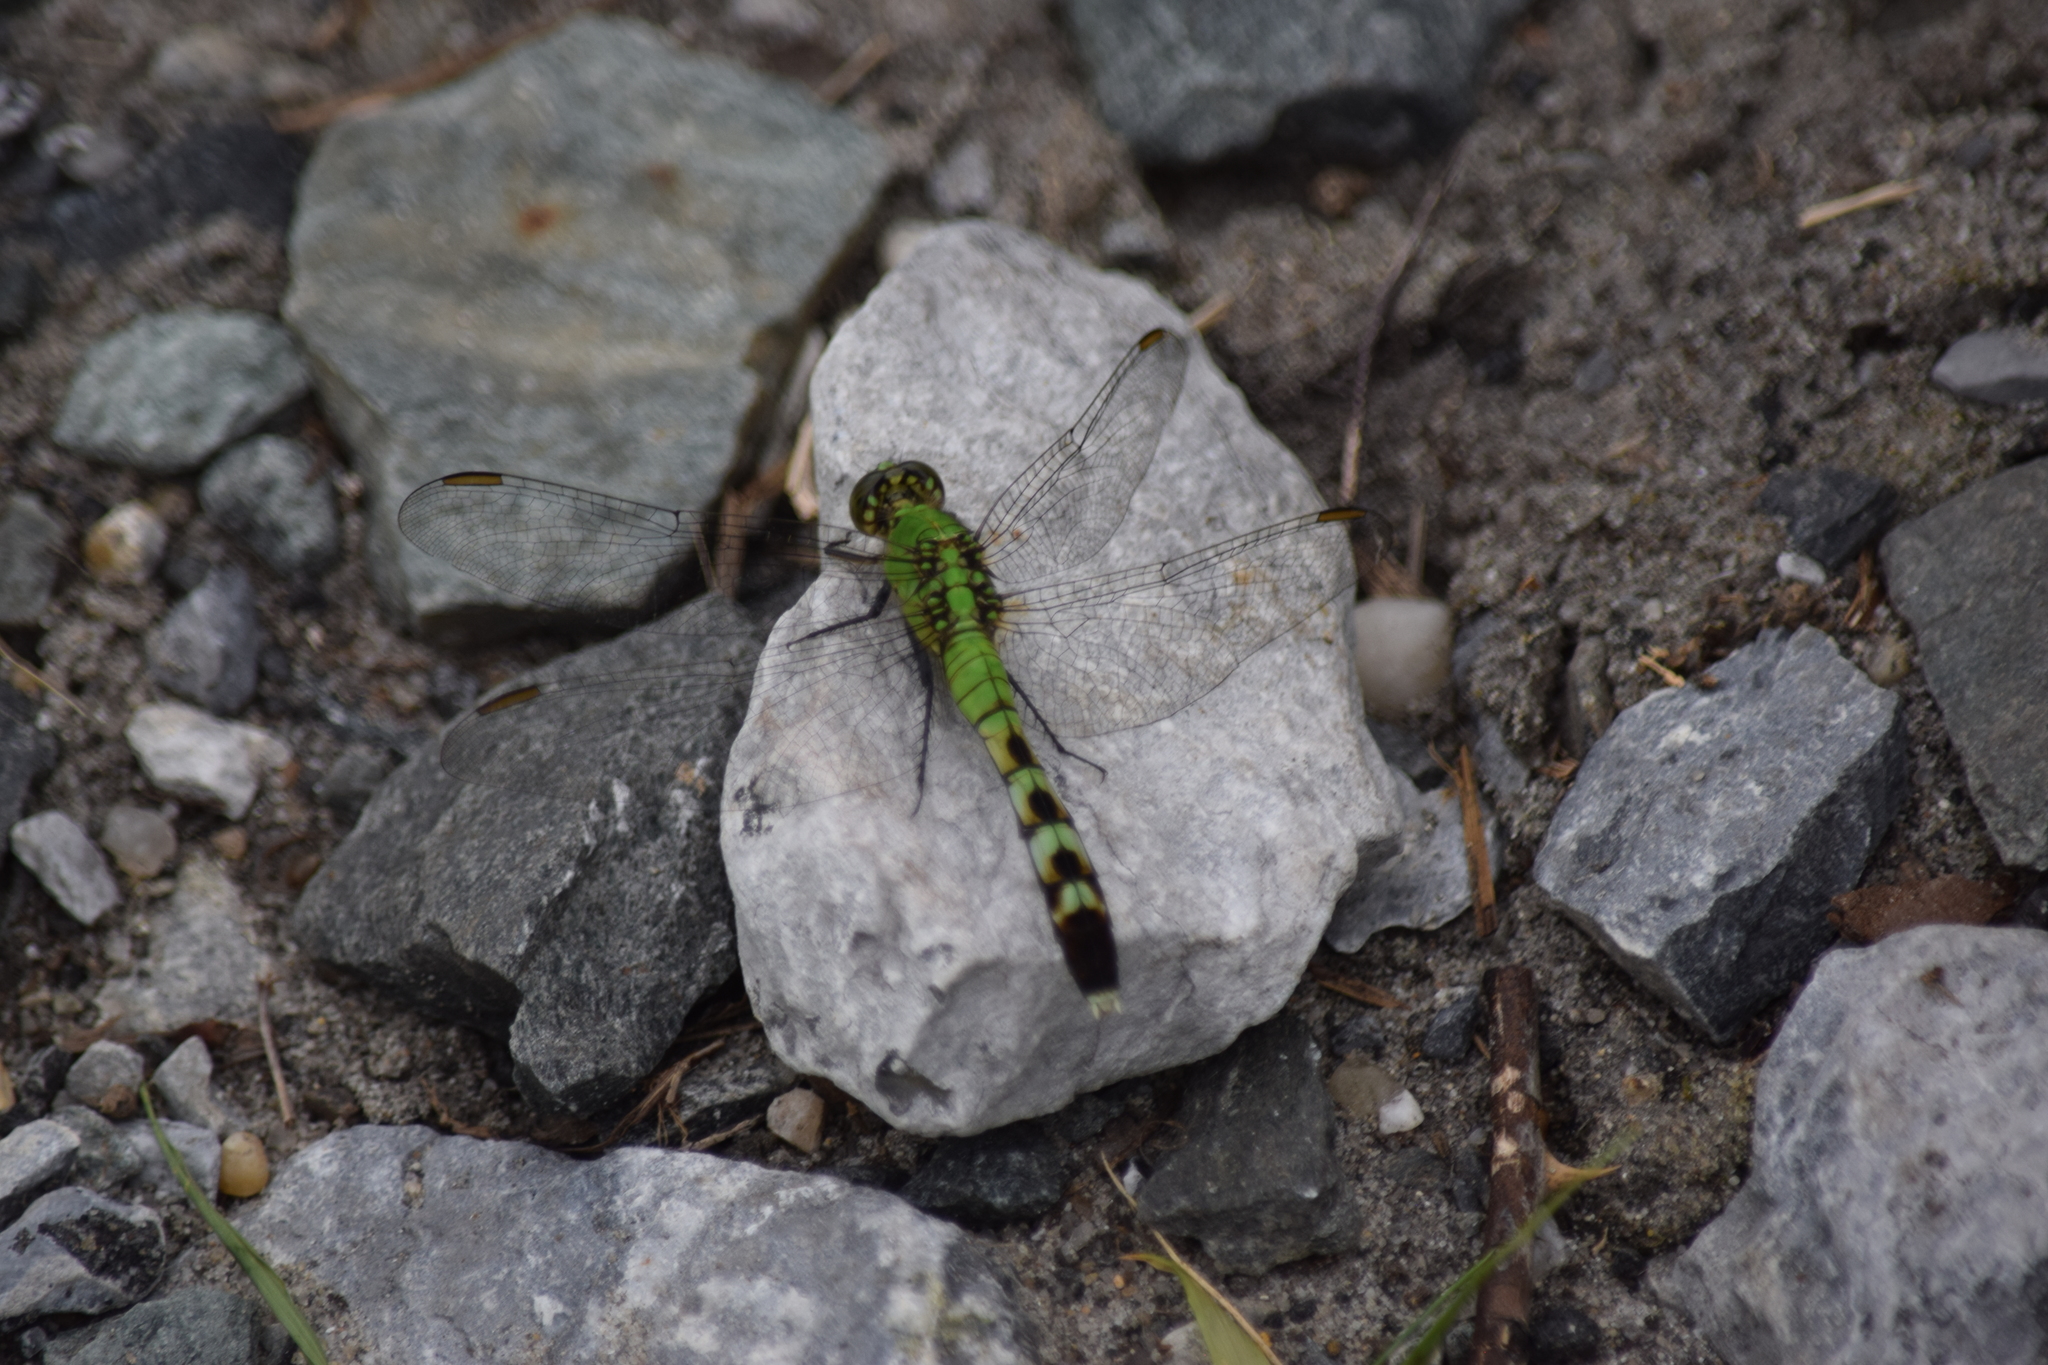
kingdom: Animalia
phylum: Arthropoda
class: Insecta
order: Odonata
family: Libellulidae
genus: Erythemis
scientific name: Erythemis simplicicollis
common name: Eastern pondhawk
